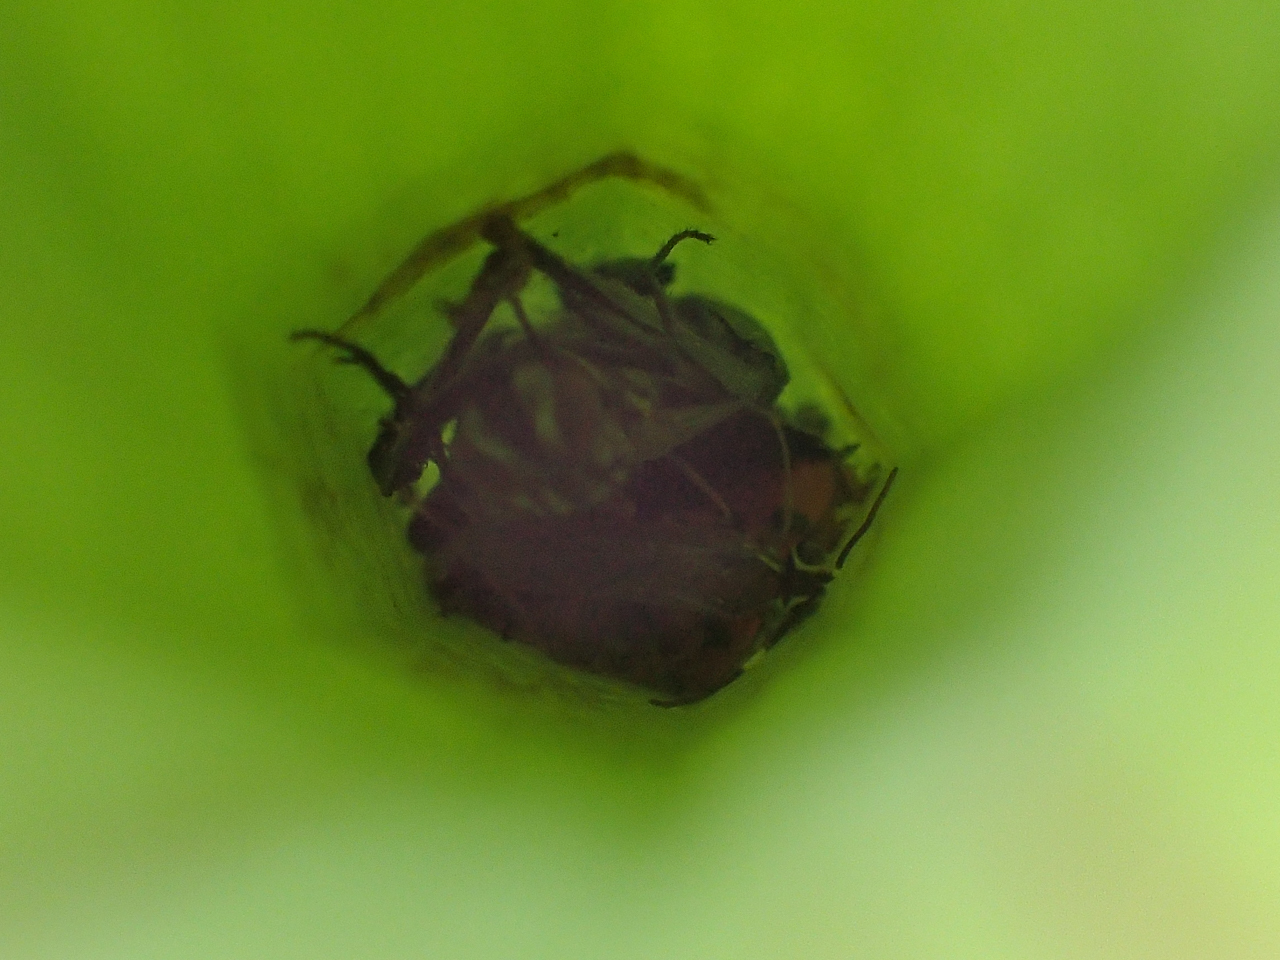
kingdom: Plantae
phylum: Tracheophyta
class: Magnoliopsida
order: Ericales
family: Sarraceniaceae
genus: Sarracenia
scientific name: Sarracenia oreophila
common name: Green pitcherplant
